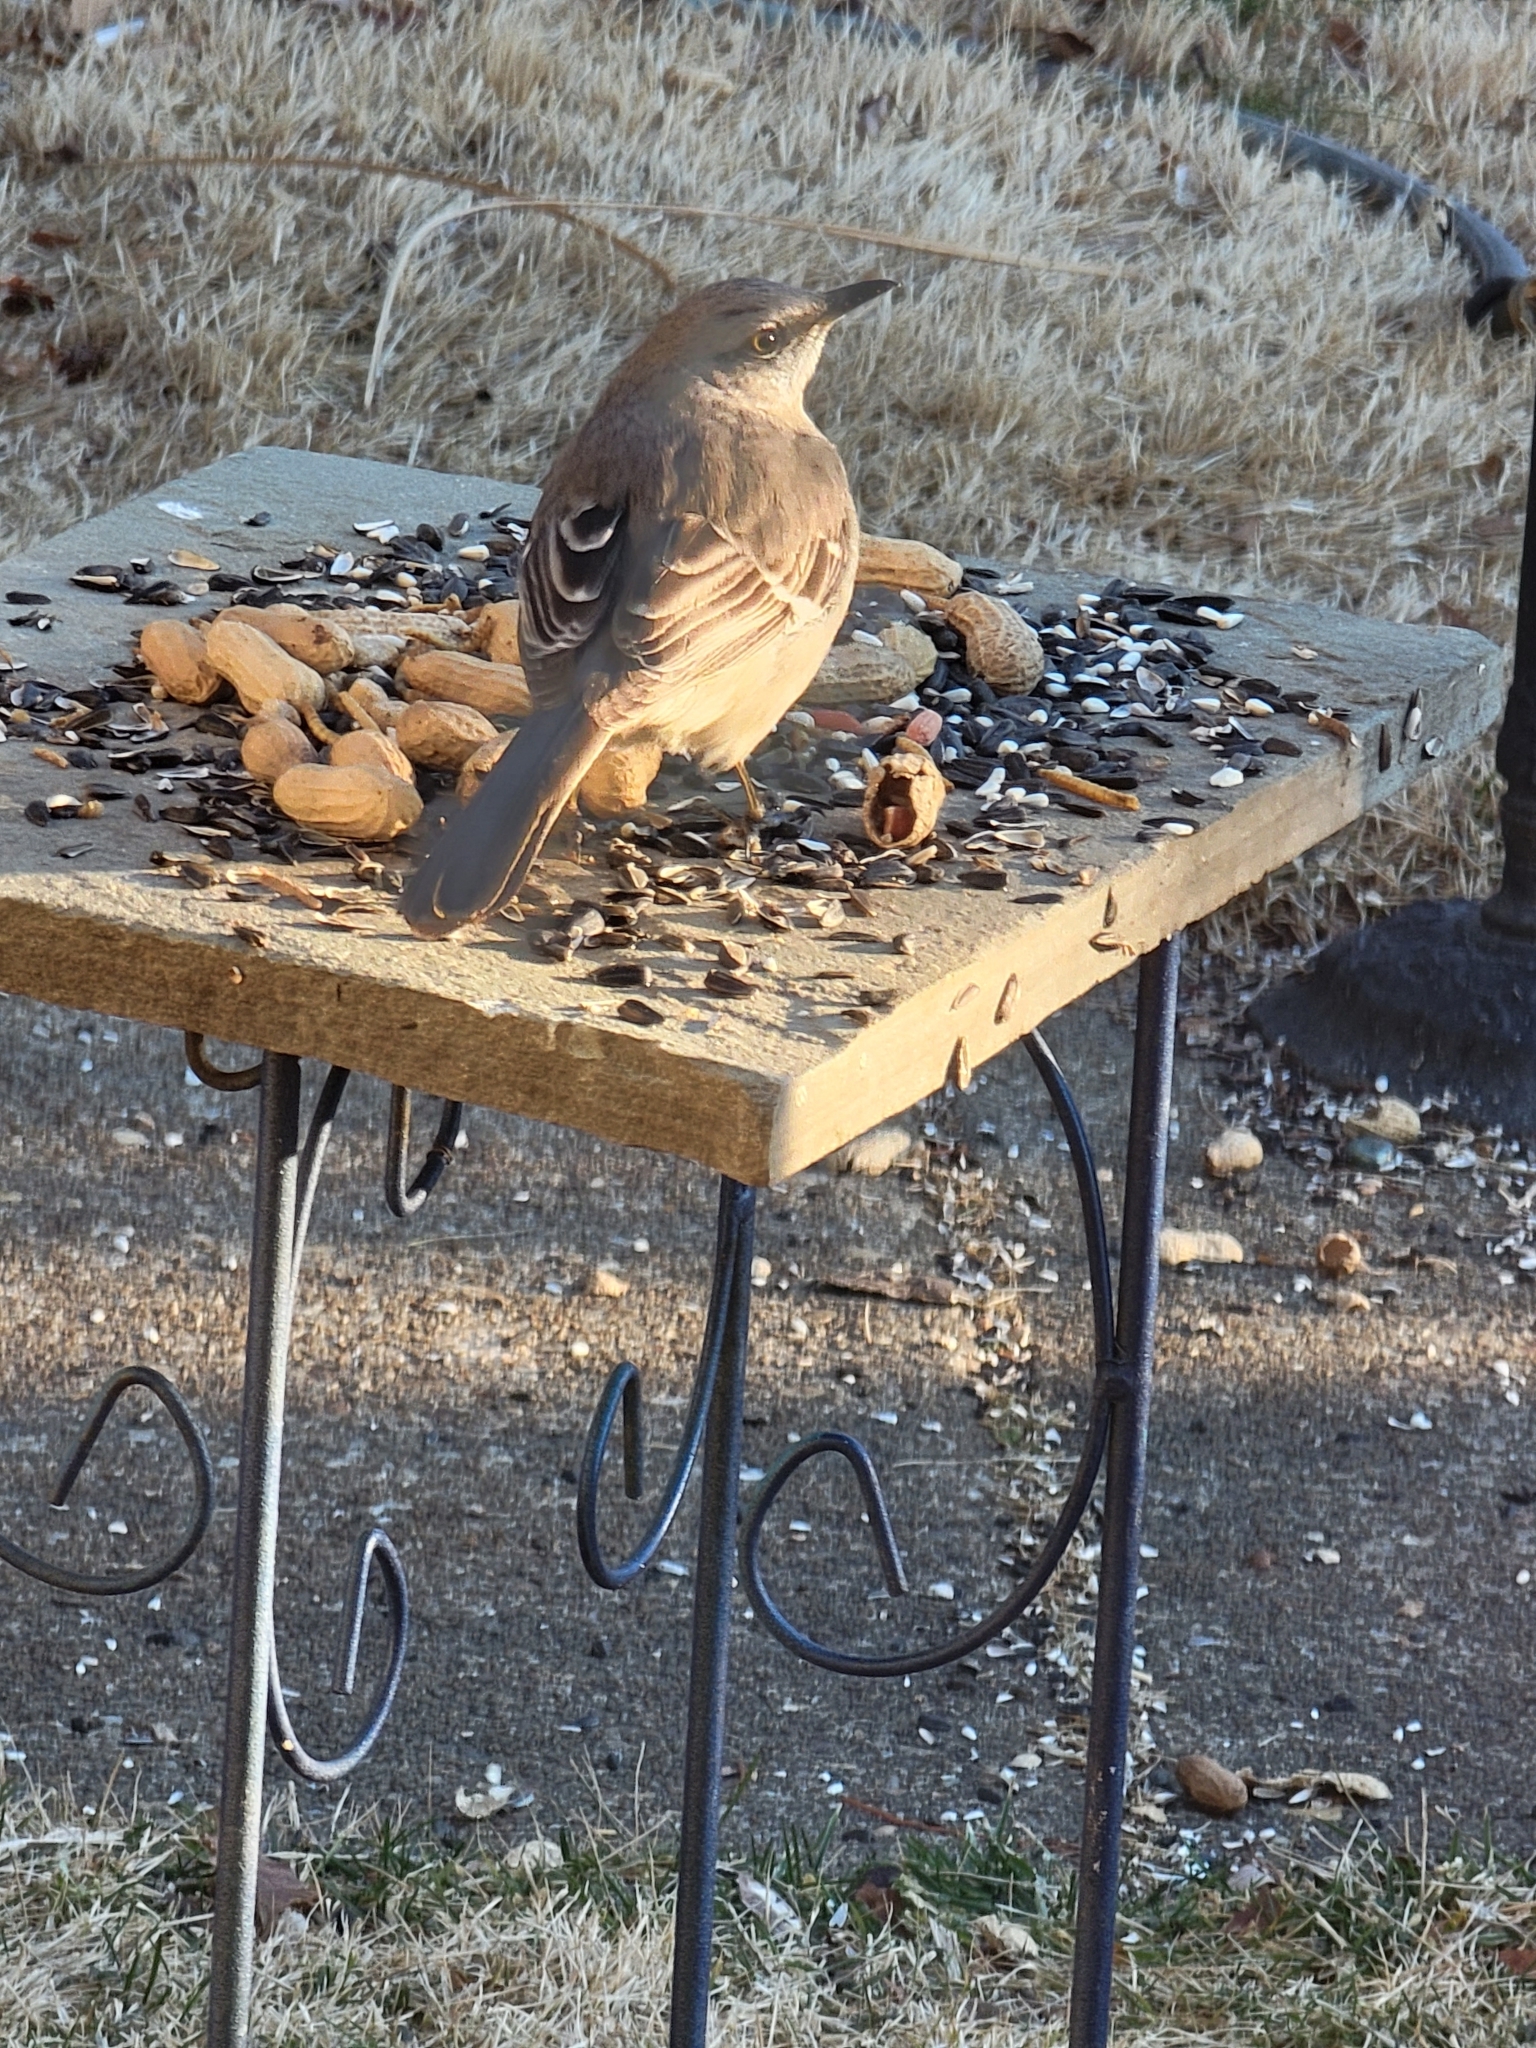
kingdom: Animalia
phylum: Chordata
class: Aves
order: Passeriformes
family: Mimidae
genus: Mimus
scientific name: Mimus polyglottos
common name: Northern mockingbird
